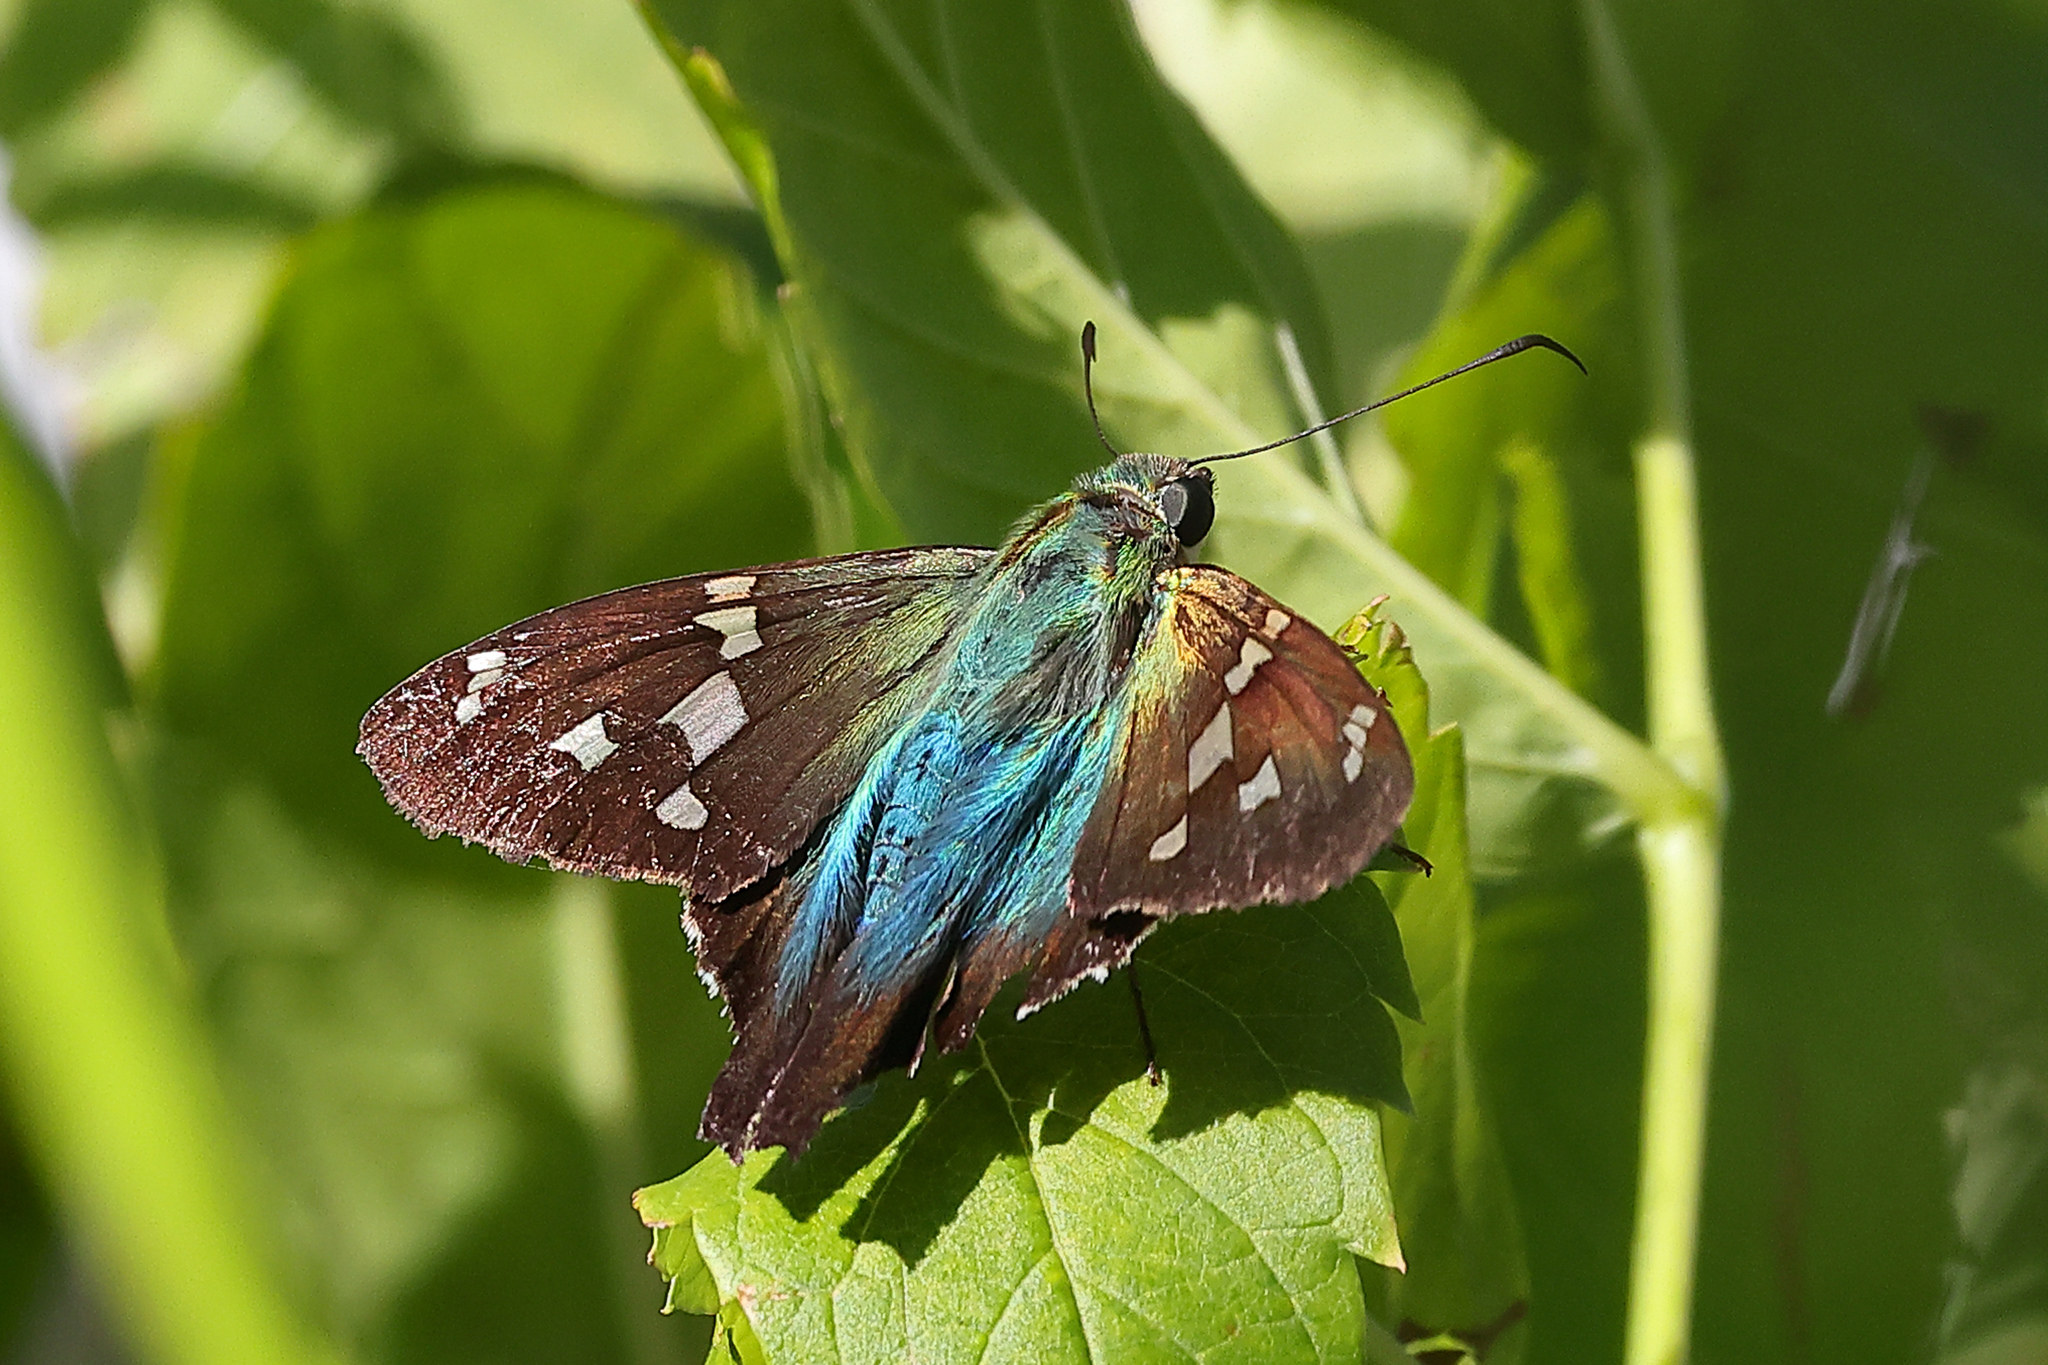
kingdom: Animalia
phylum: Arthropoda
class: Insecta
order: Lepidoptera
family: Hesperiidae
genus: Urbanus
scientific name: Urbanus evona
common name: Turquoise longtail
